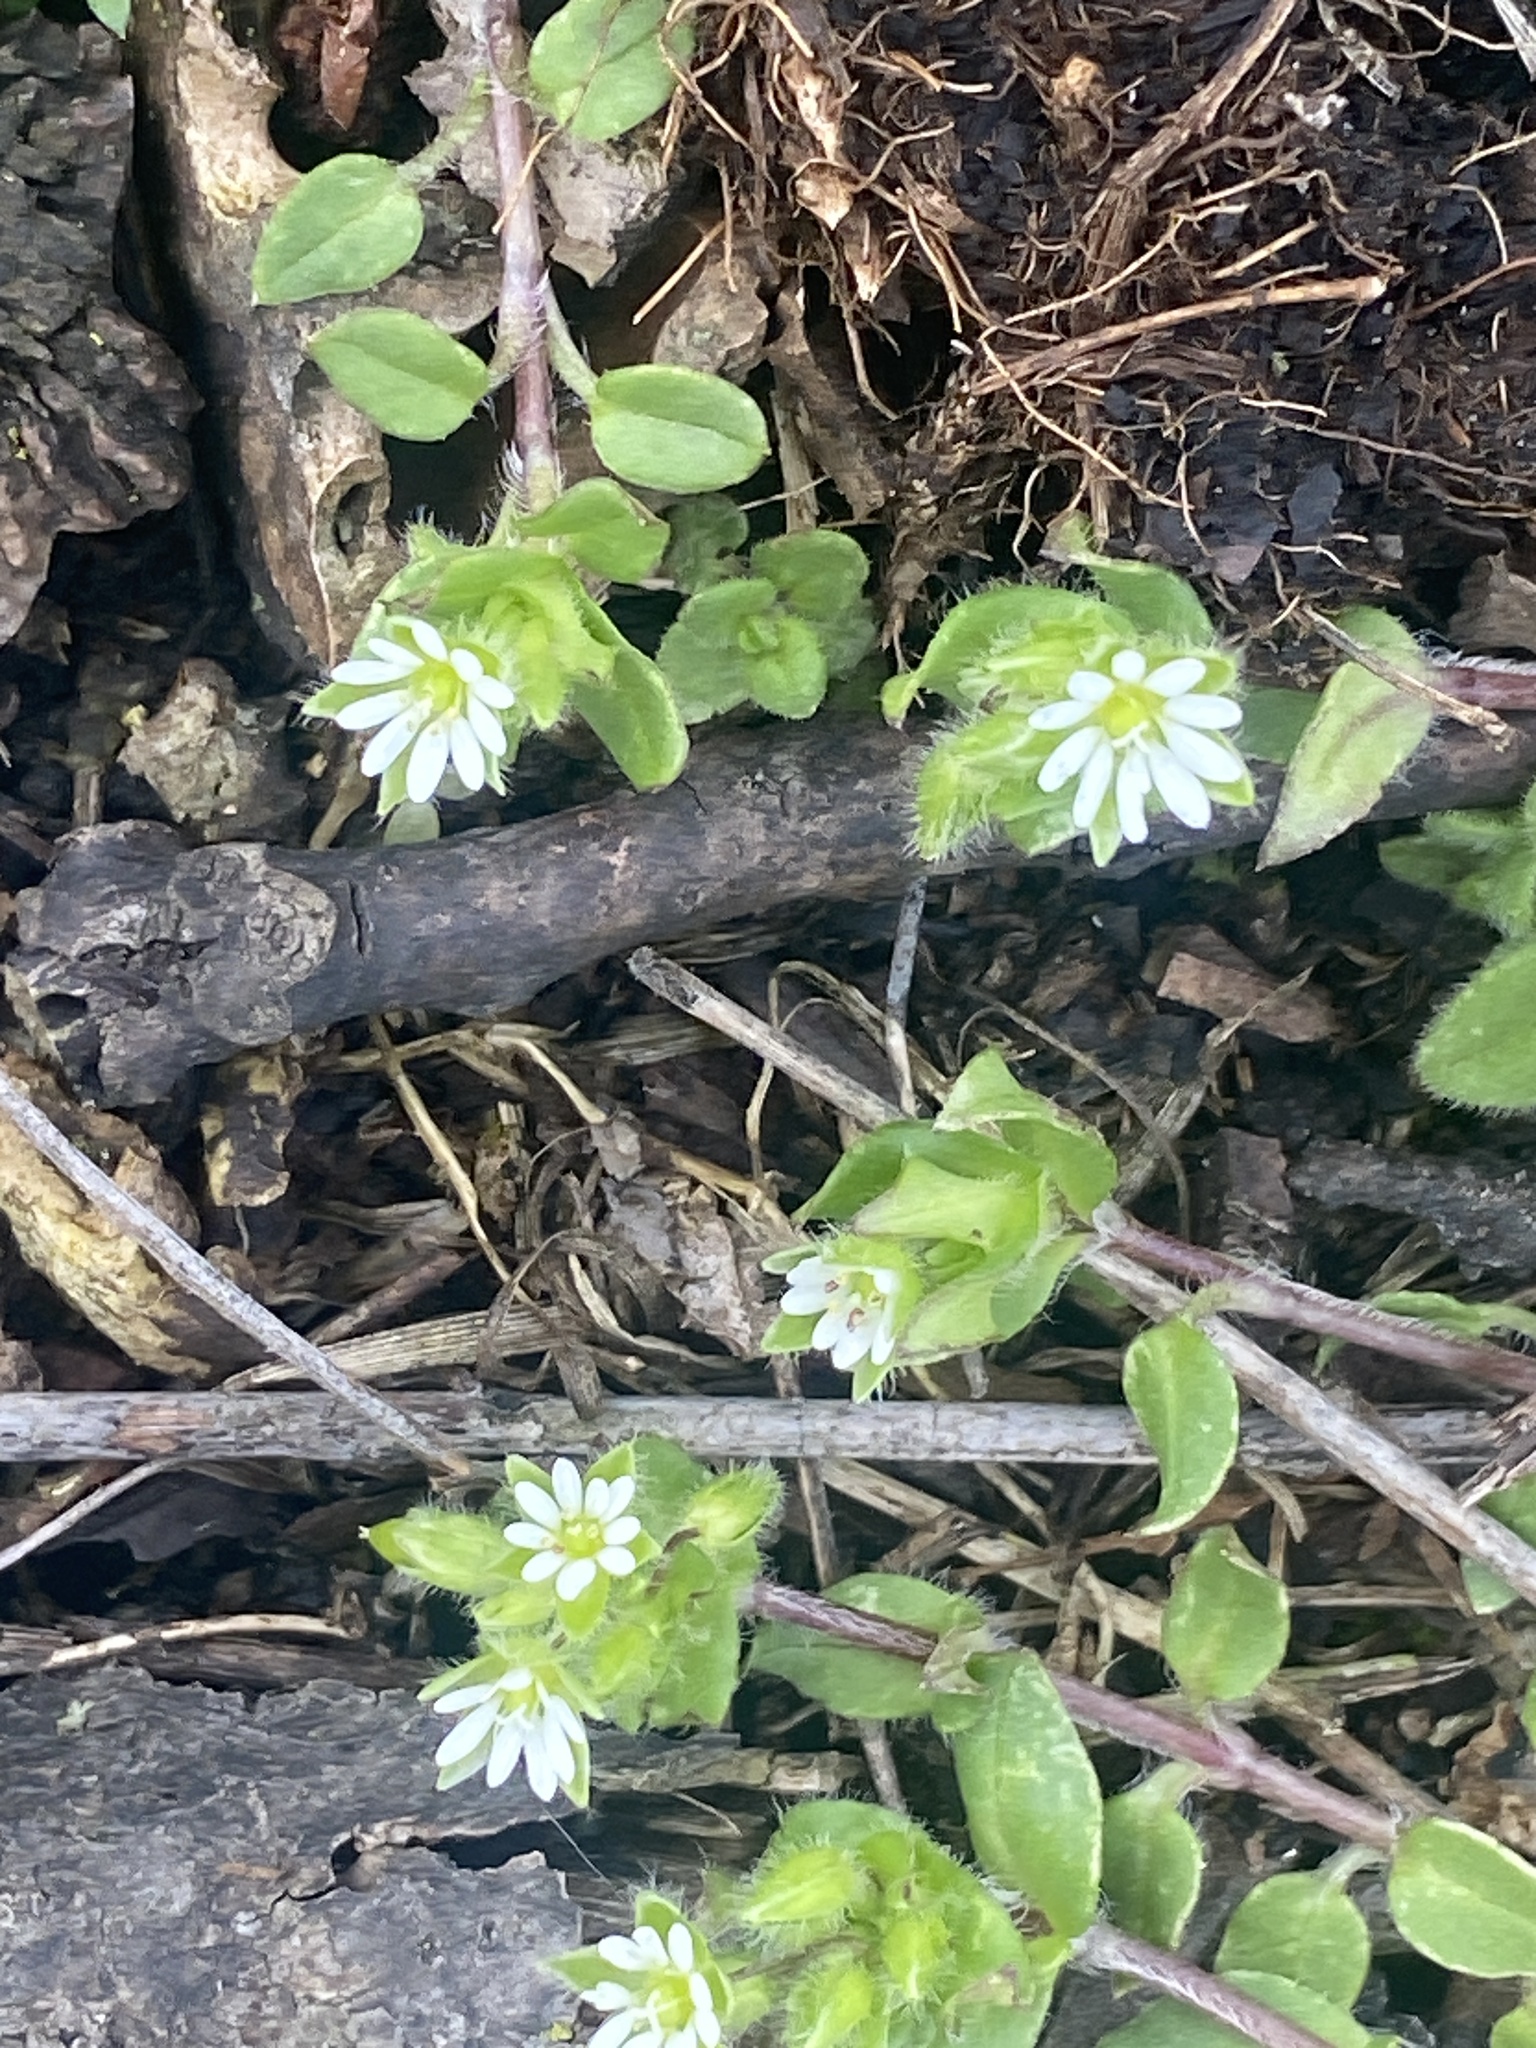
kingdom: Plantae
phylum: Tracheophyta
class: Magnoliopsida
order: Caryophyllales
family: Caryophyllaceae
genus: Stellaria
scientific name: Stellaria media
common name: Common chickweed
